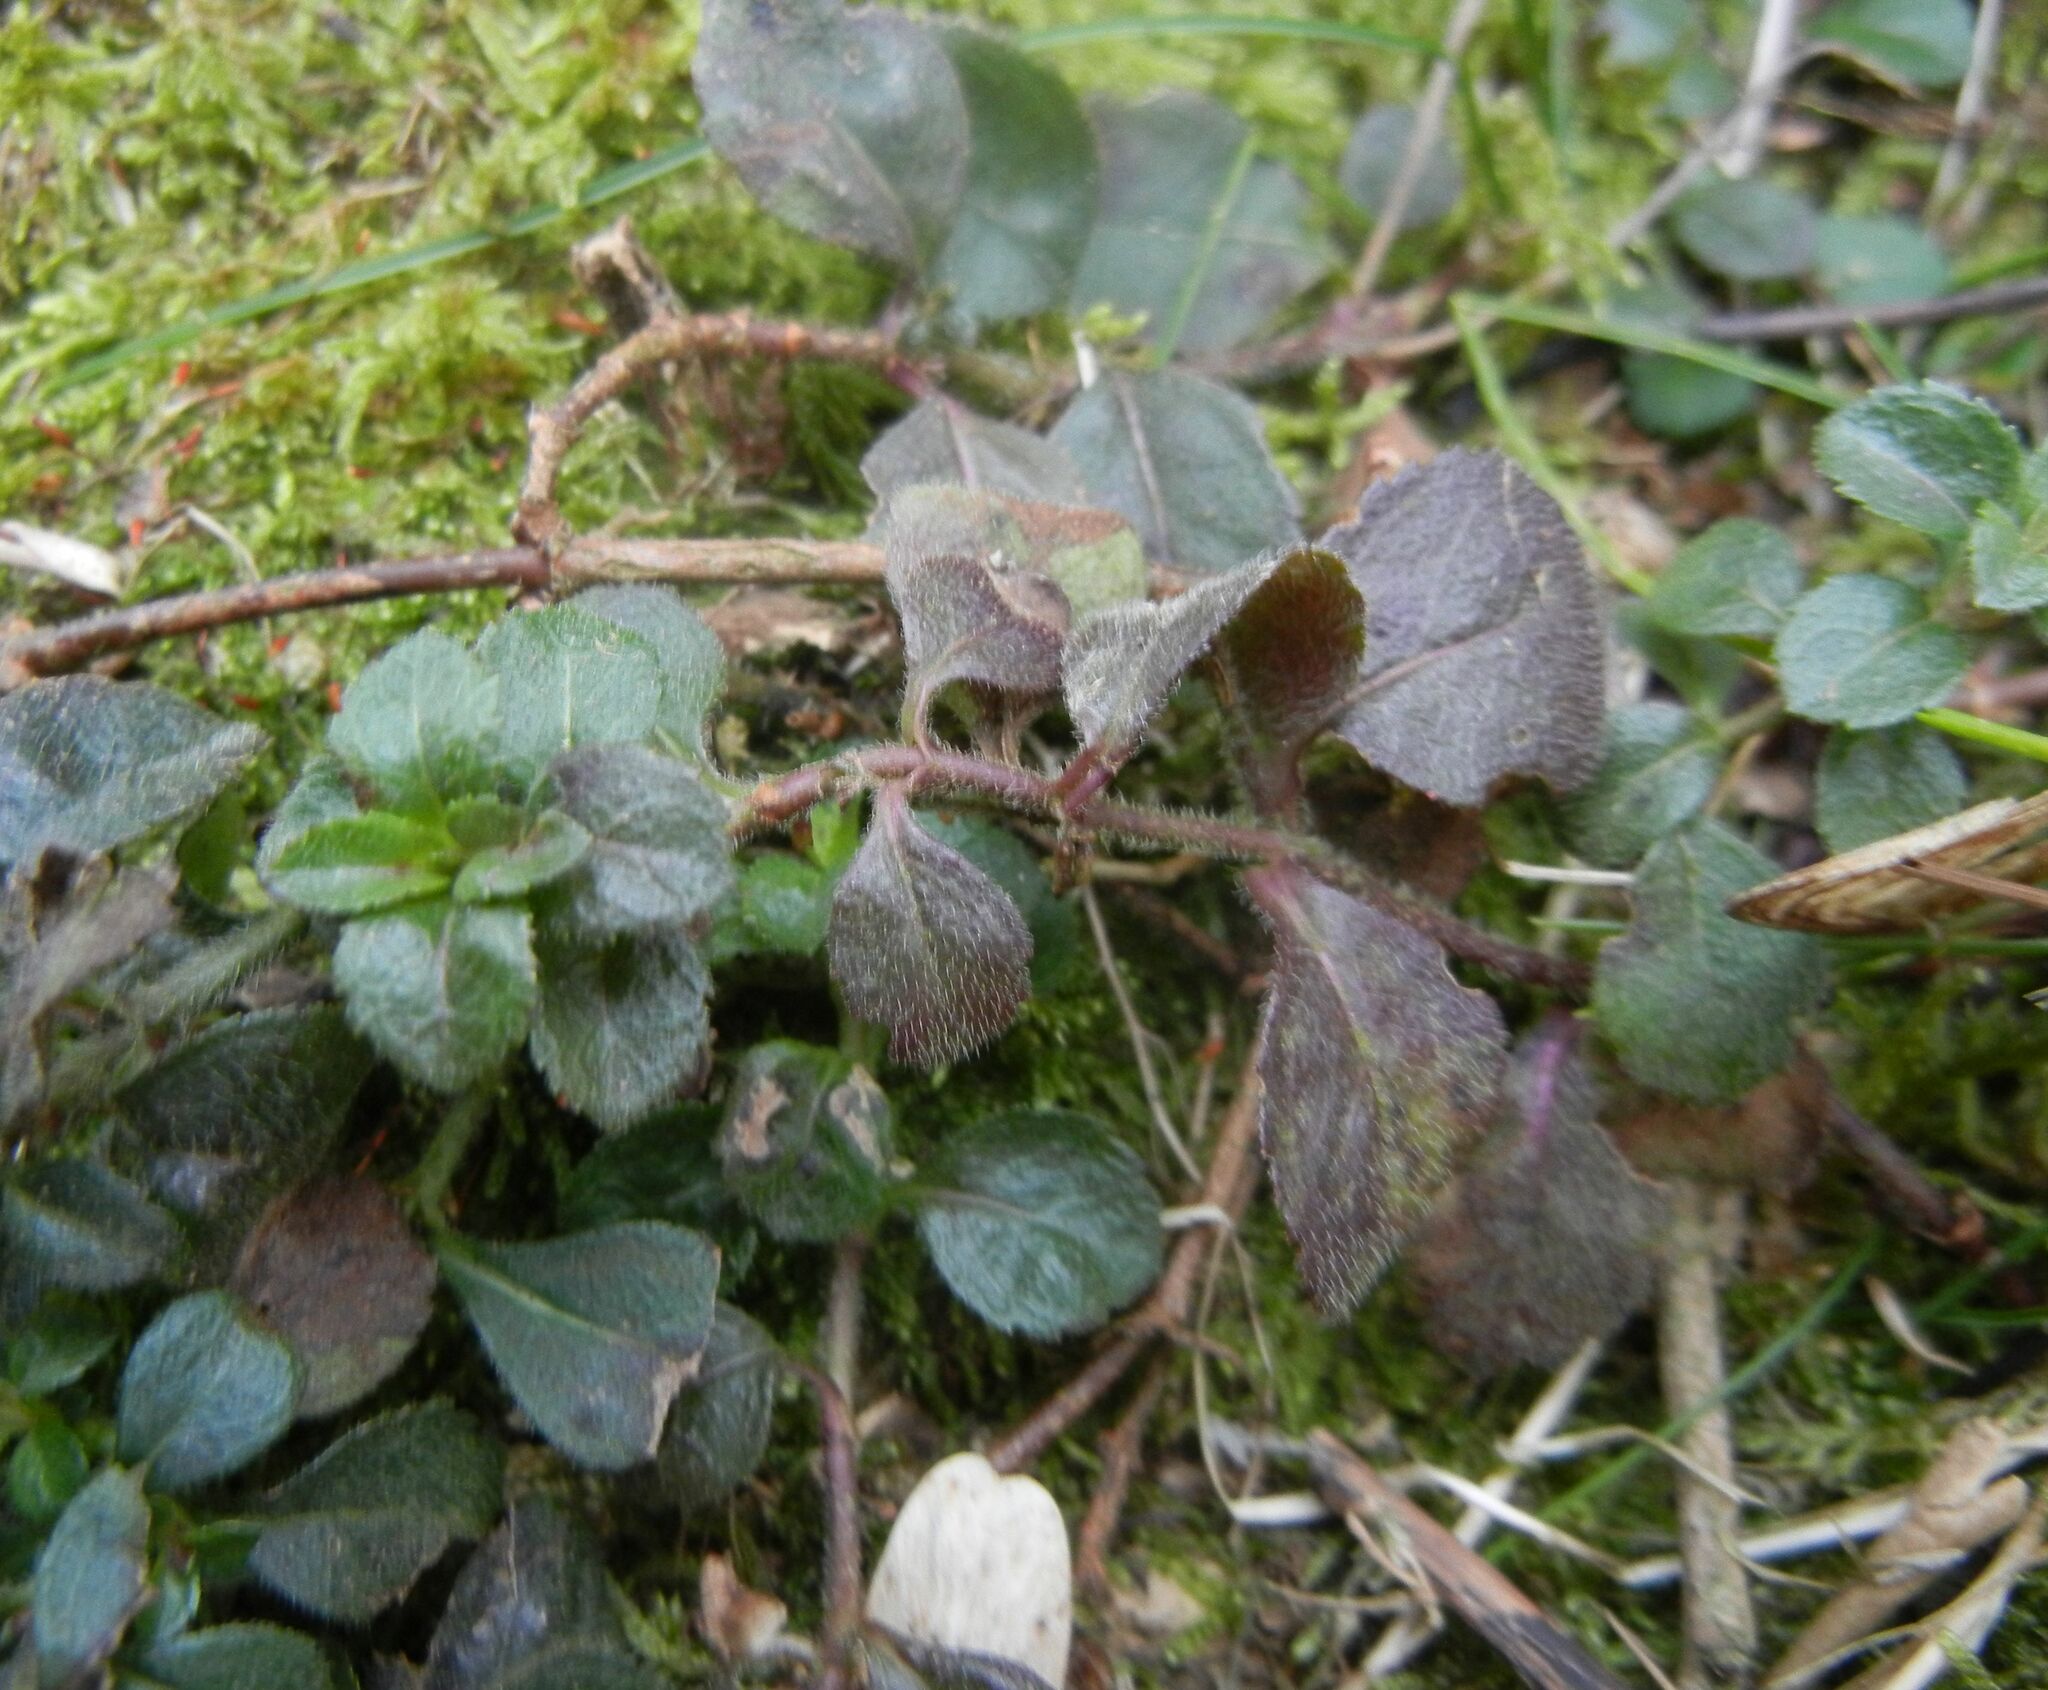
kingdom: Plantae
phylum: Tracheophyta
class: Magnoliopsida
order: Lamiales
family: Plantaginaceae
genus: Veronica
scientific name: Veronica officinalis
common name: Common speedwell
